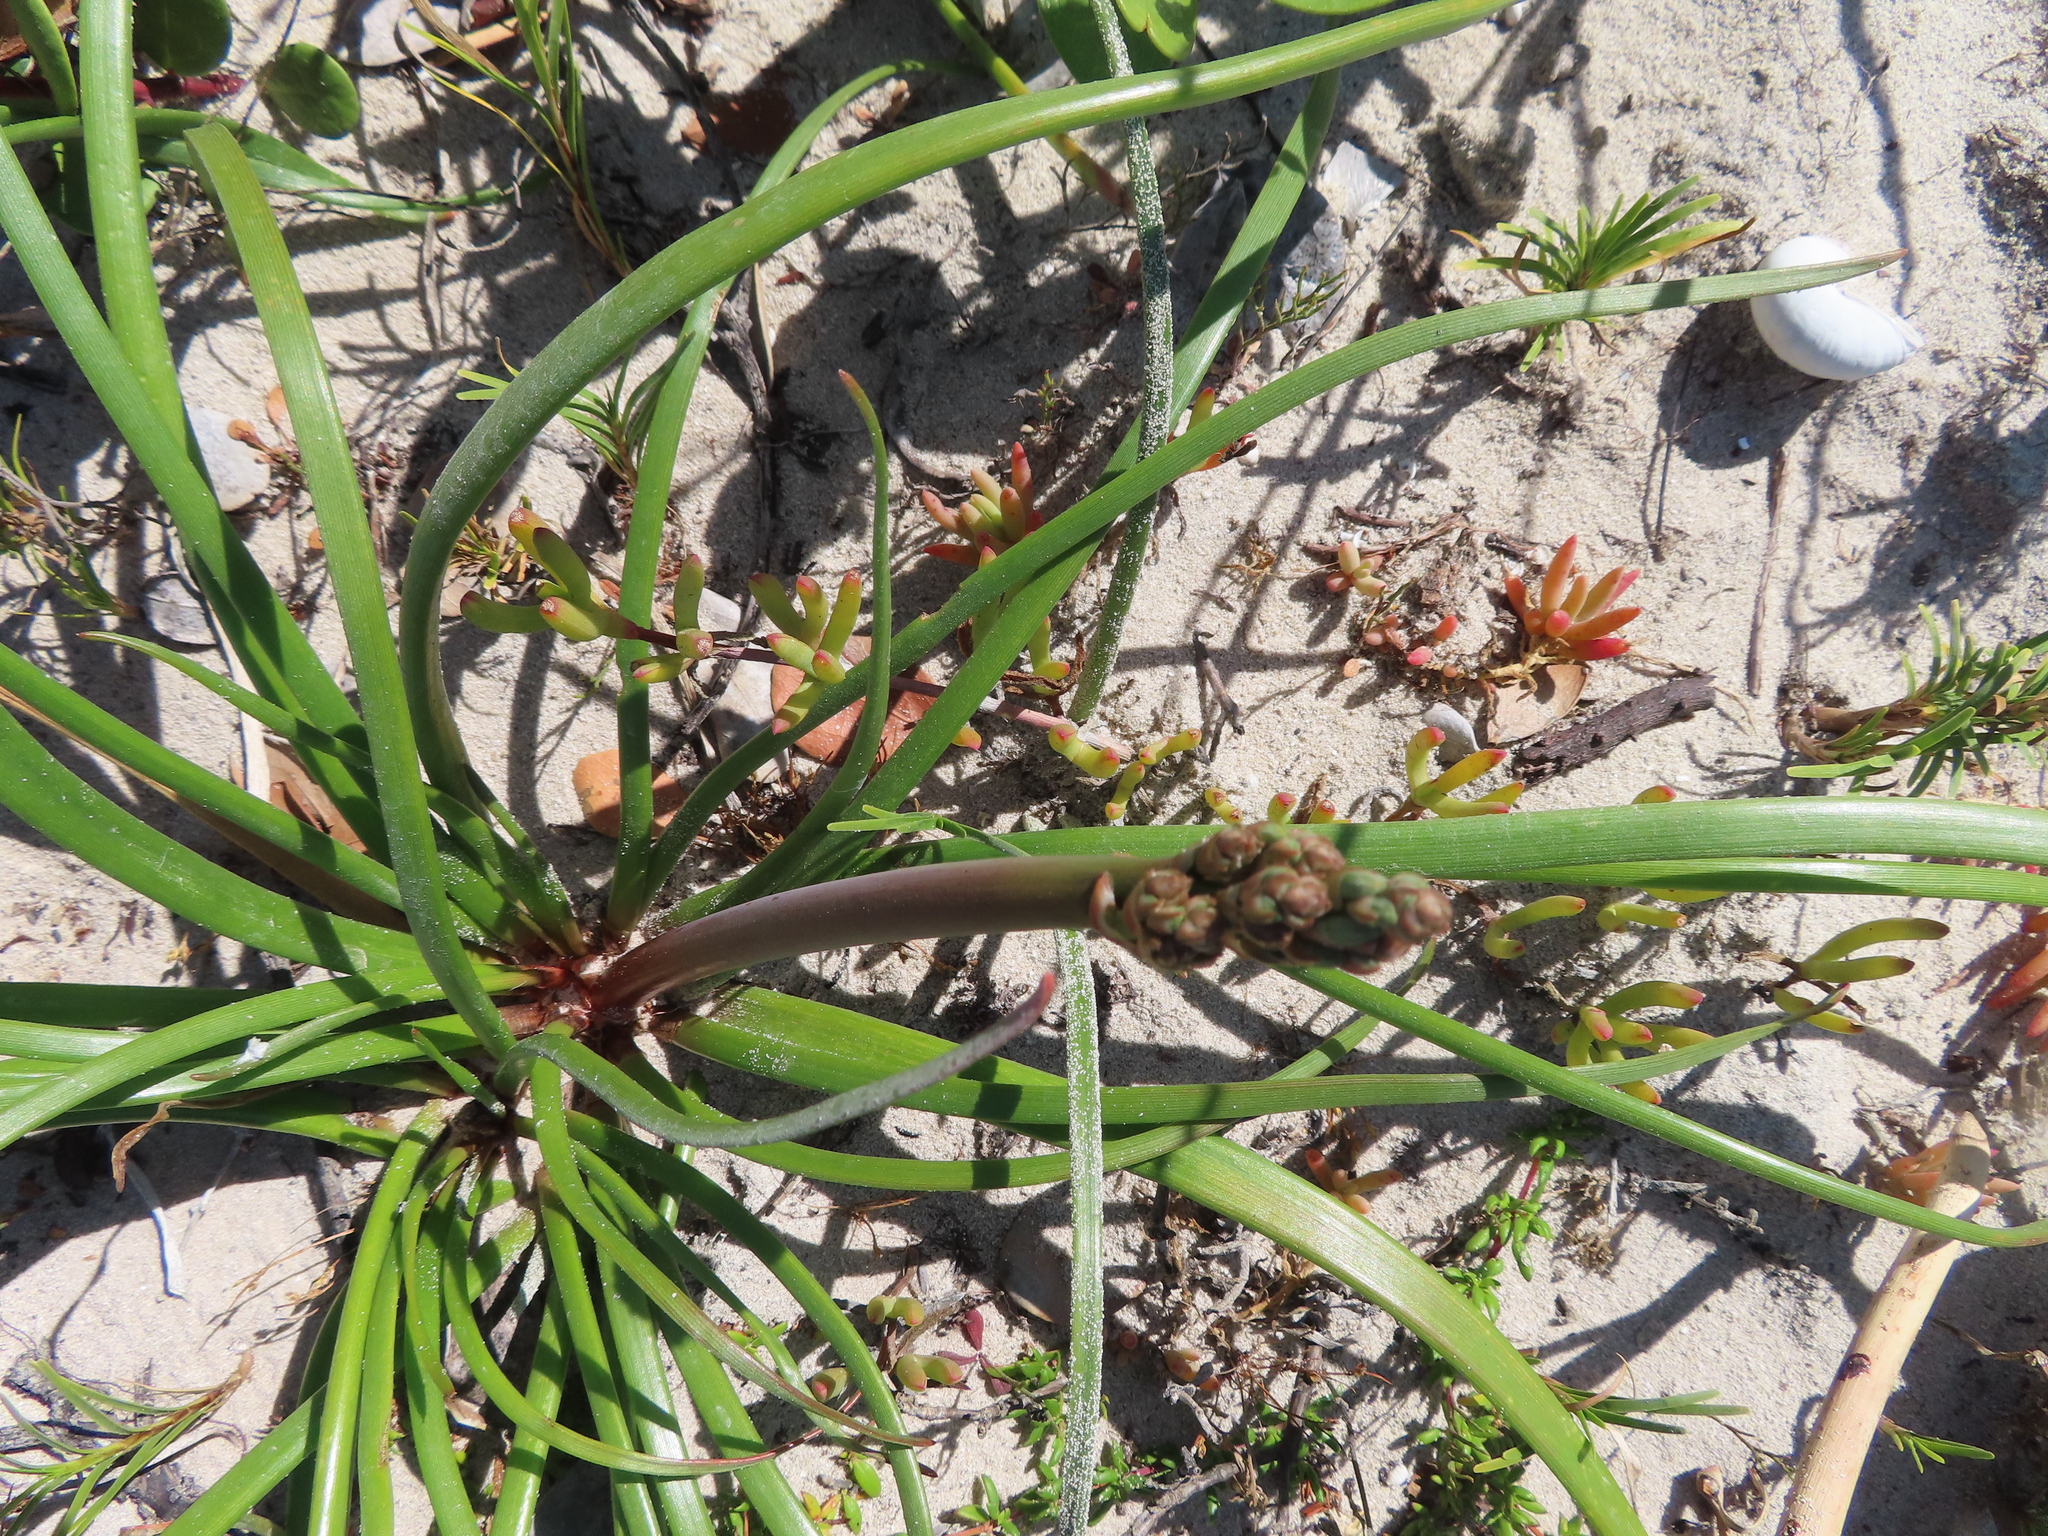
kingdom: Plantae
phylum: Tracheophyta
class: Liliopsida
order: Asparagales
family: Asphodelaceae
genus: Trachyandra
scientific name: Trachyandra divaricata
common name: Dune onionweed
